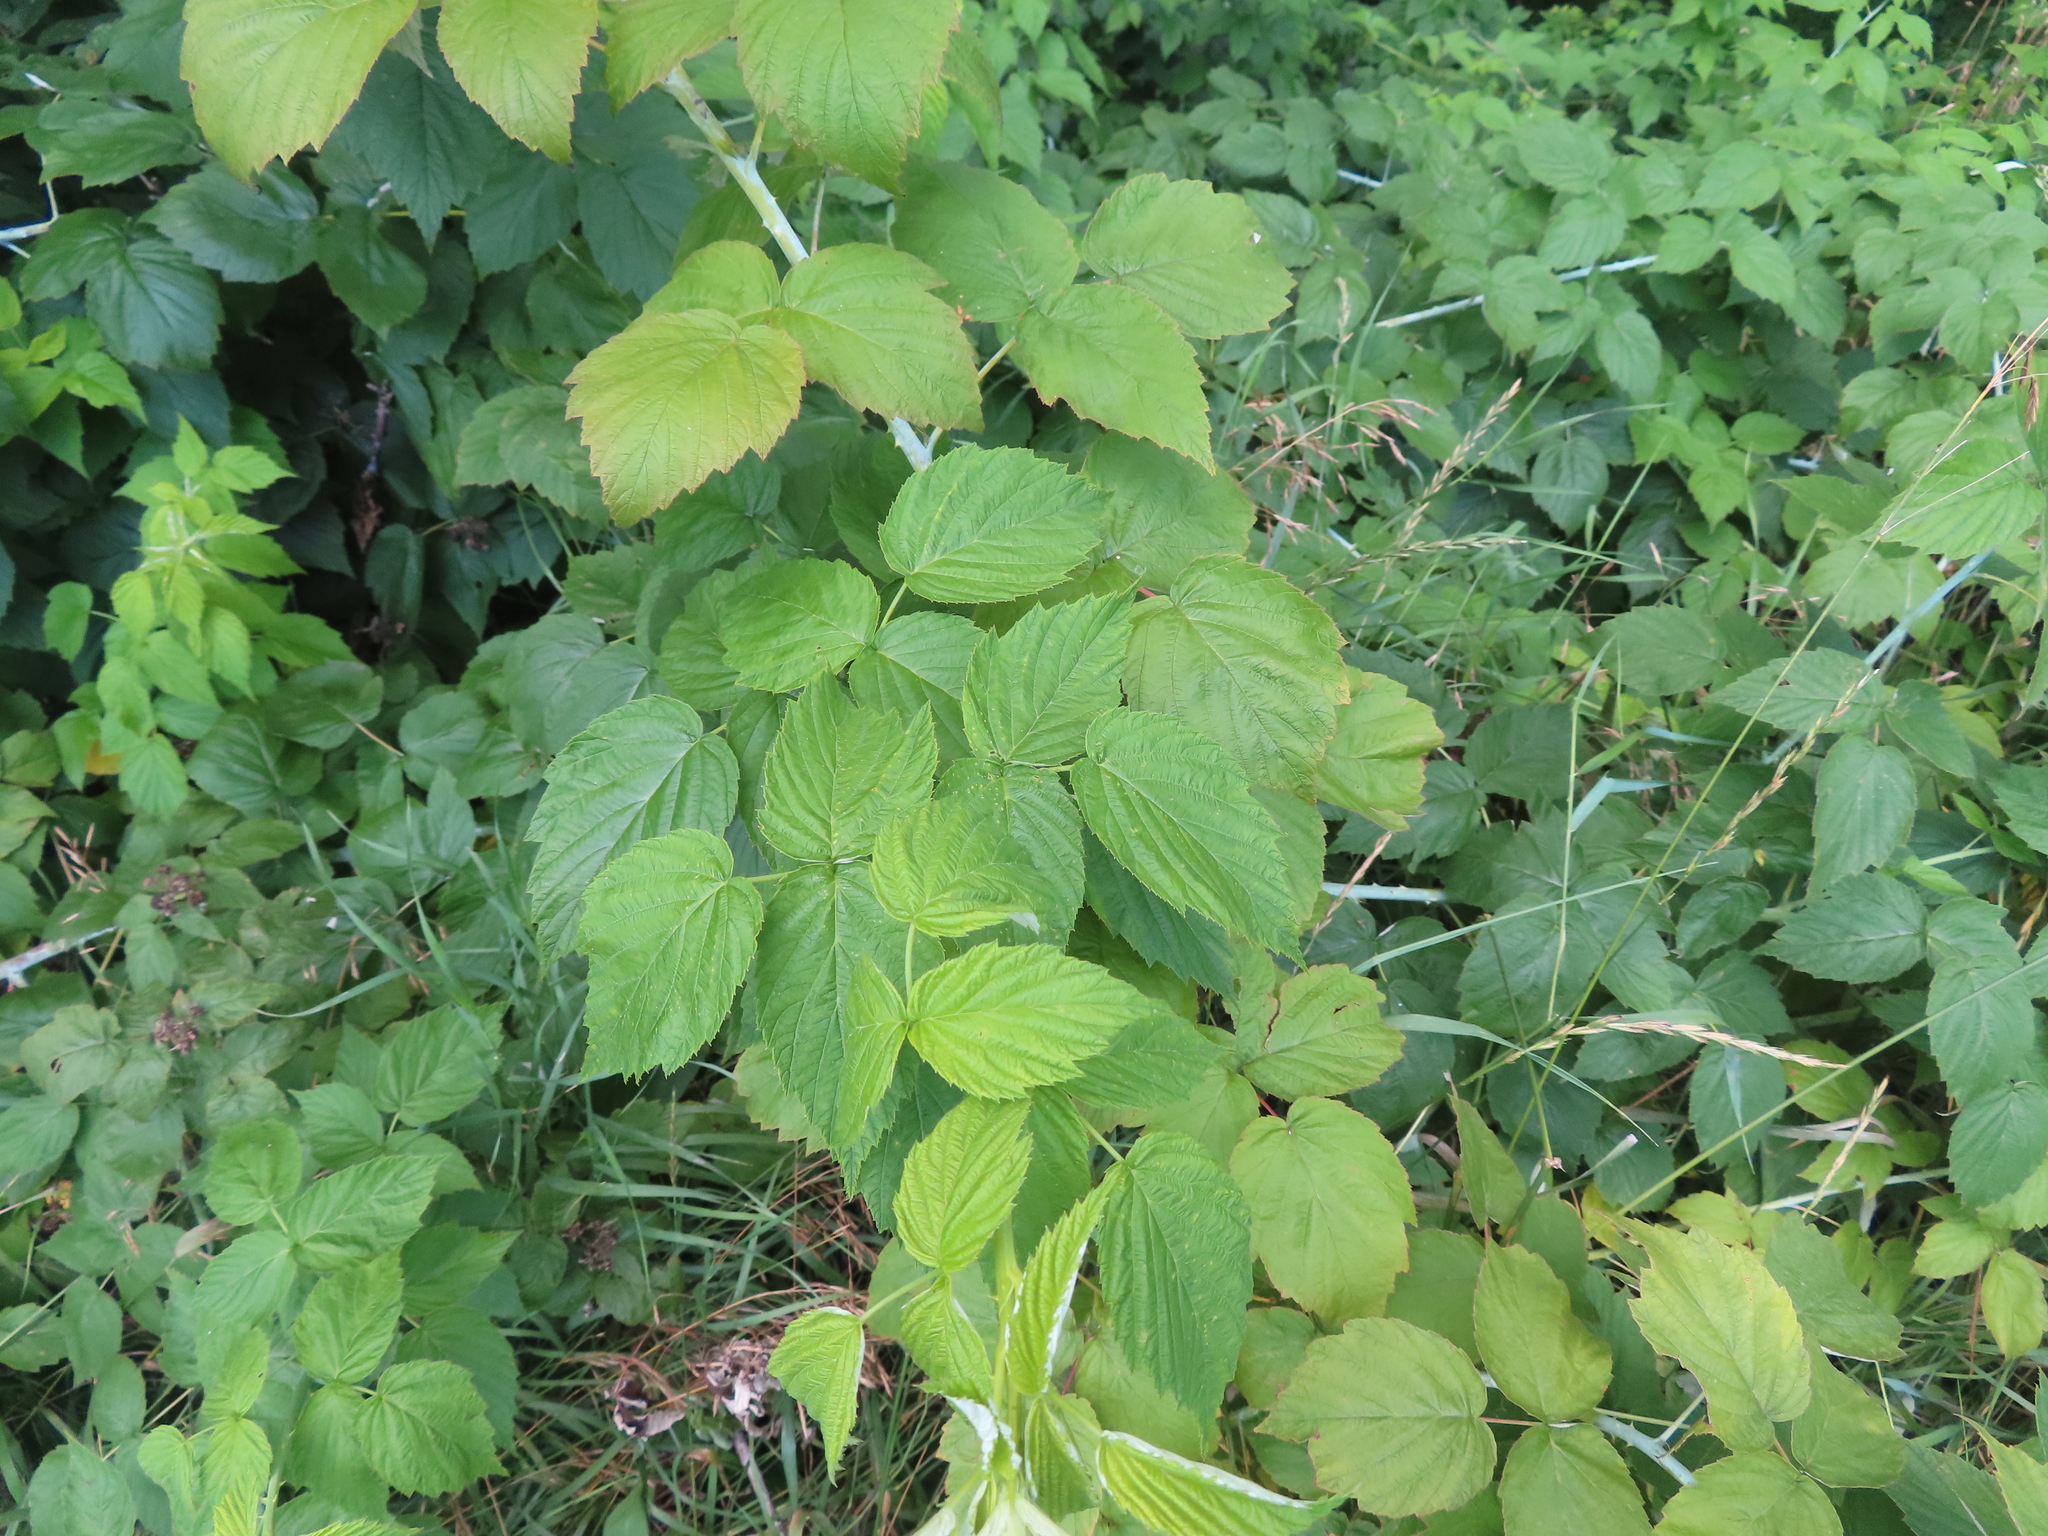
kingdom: Plantae
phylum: Tracheophyta
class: Magnoliopsida
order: Rosales
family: Rosaceae
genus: Rubus
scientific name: Rubus occidentalis
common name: Black raspberry
